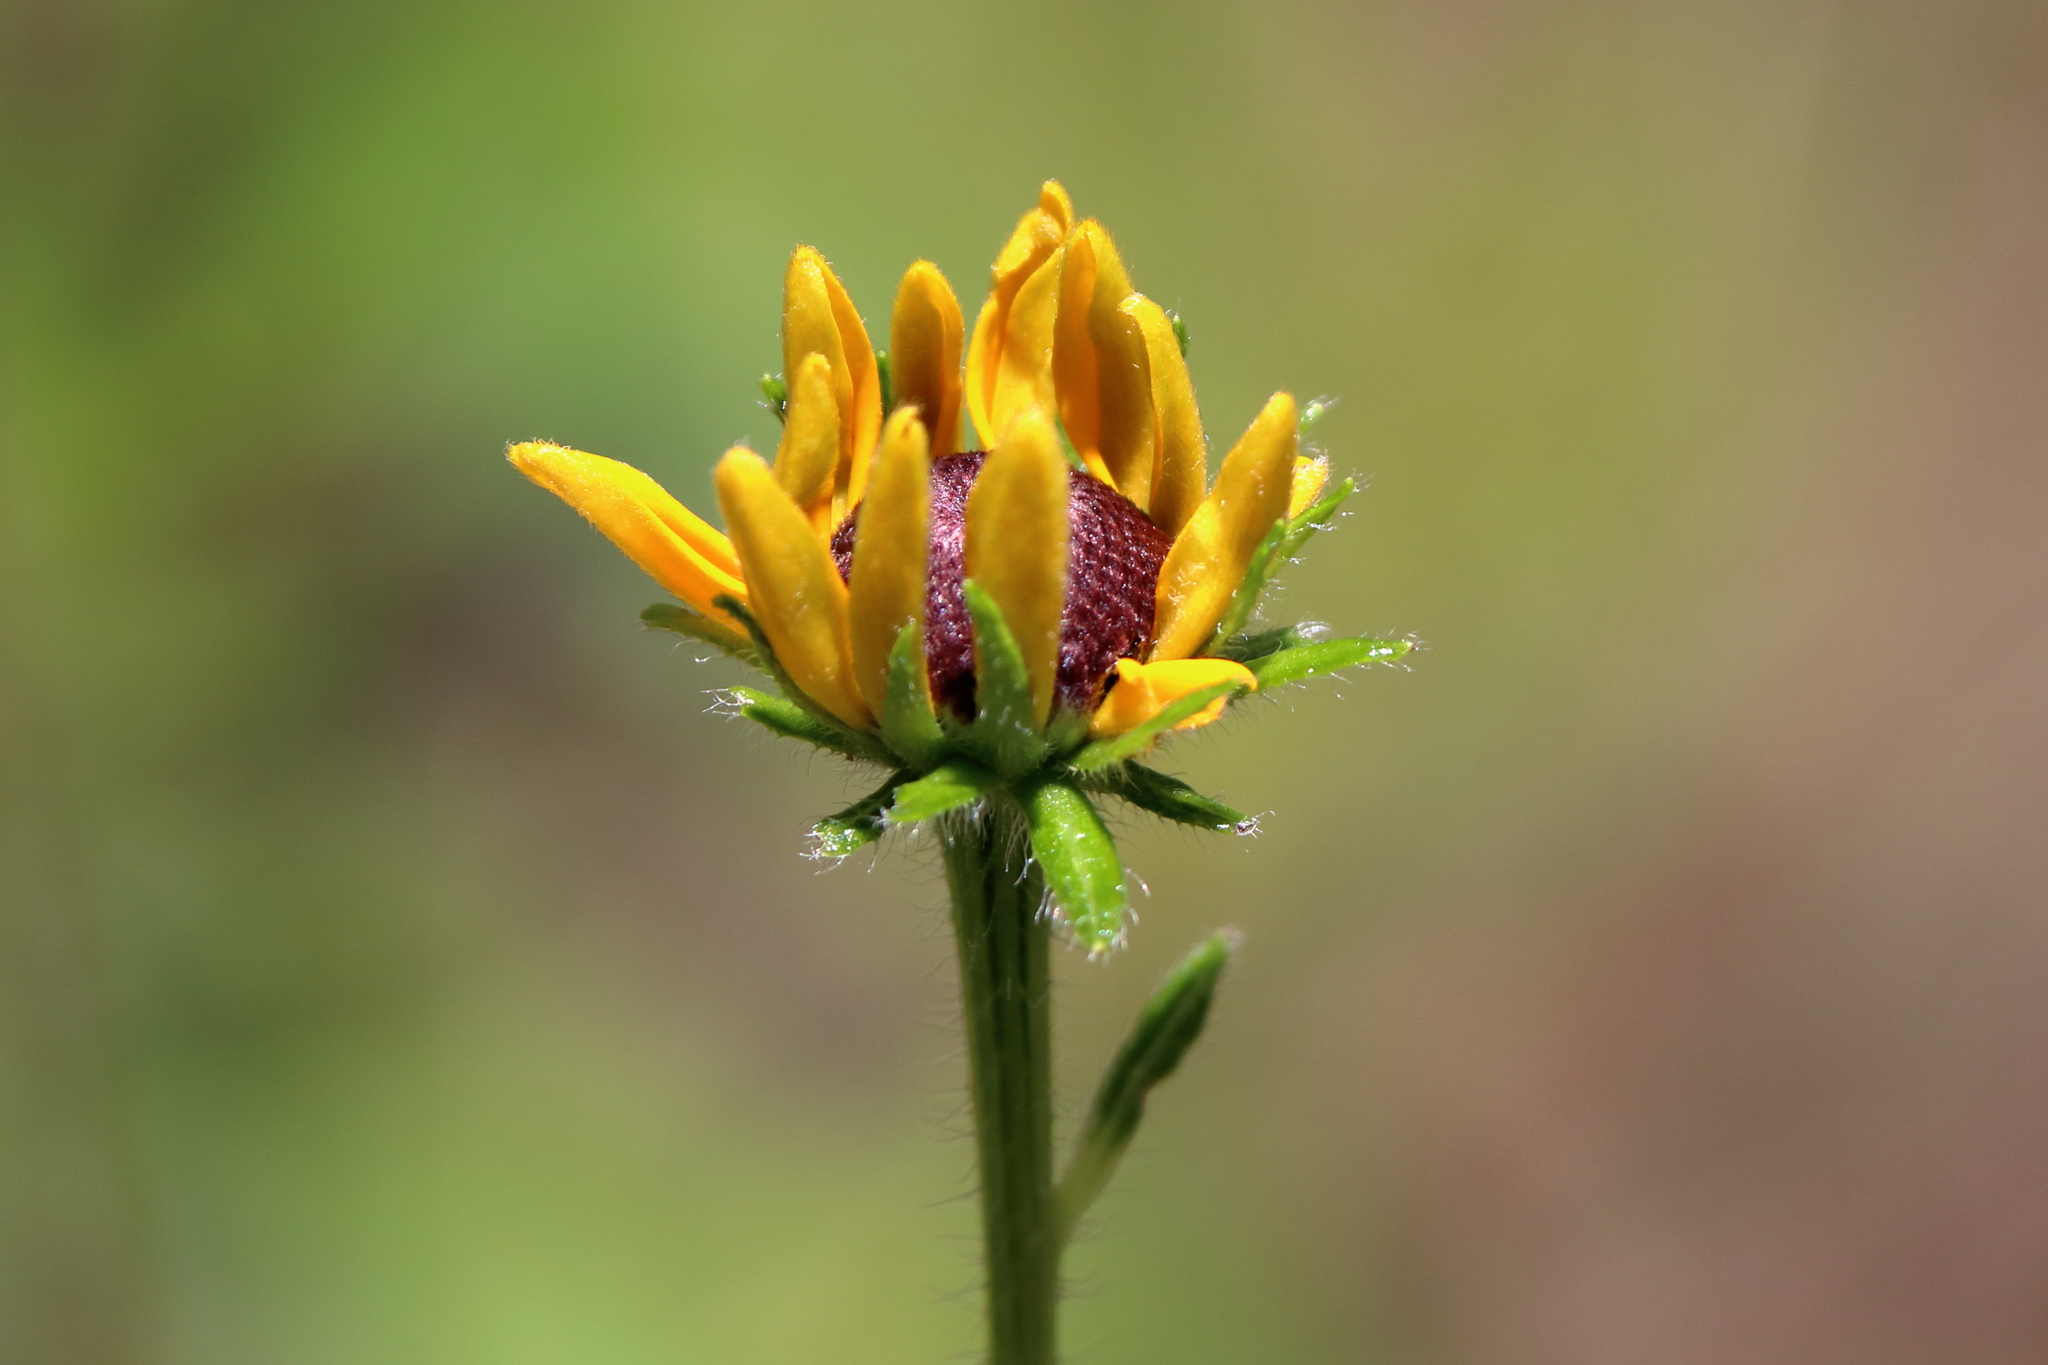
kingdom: Plantae
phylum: Tracheophyta
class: Magnoliopsida
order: Asterales
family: Asteraceae
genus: Rudbeckia
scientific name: Rudbeckia hirta
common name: Black-eyed-susan
